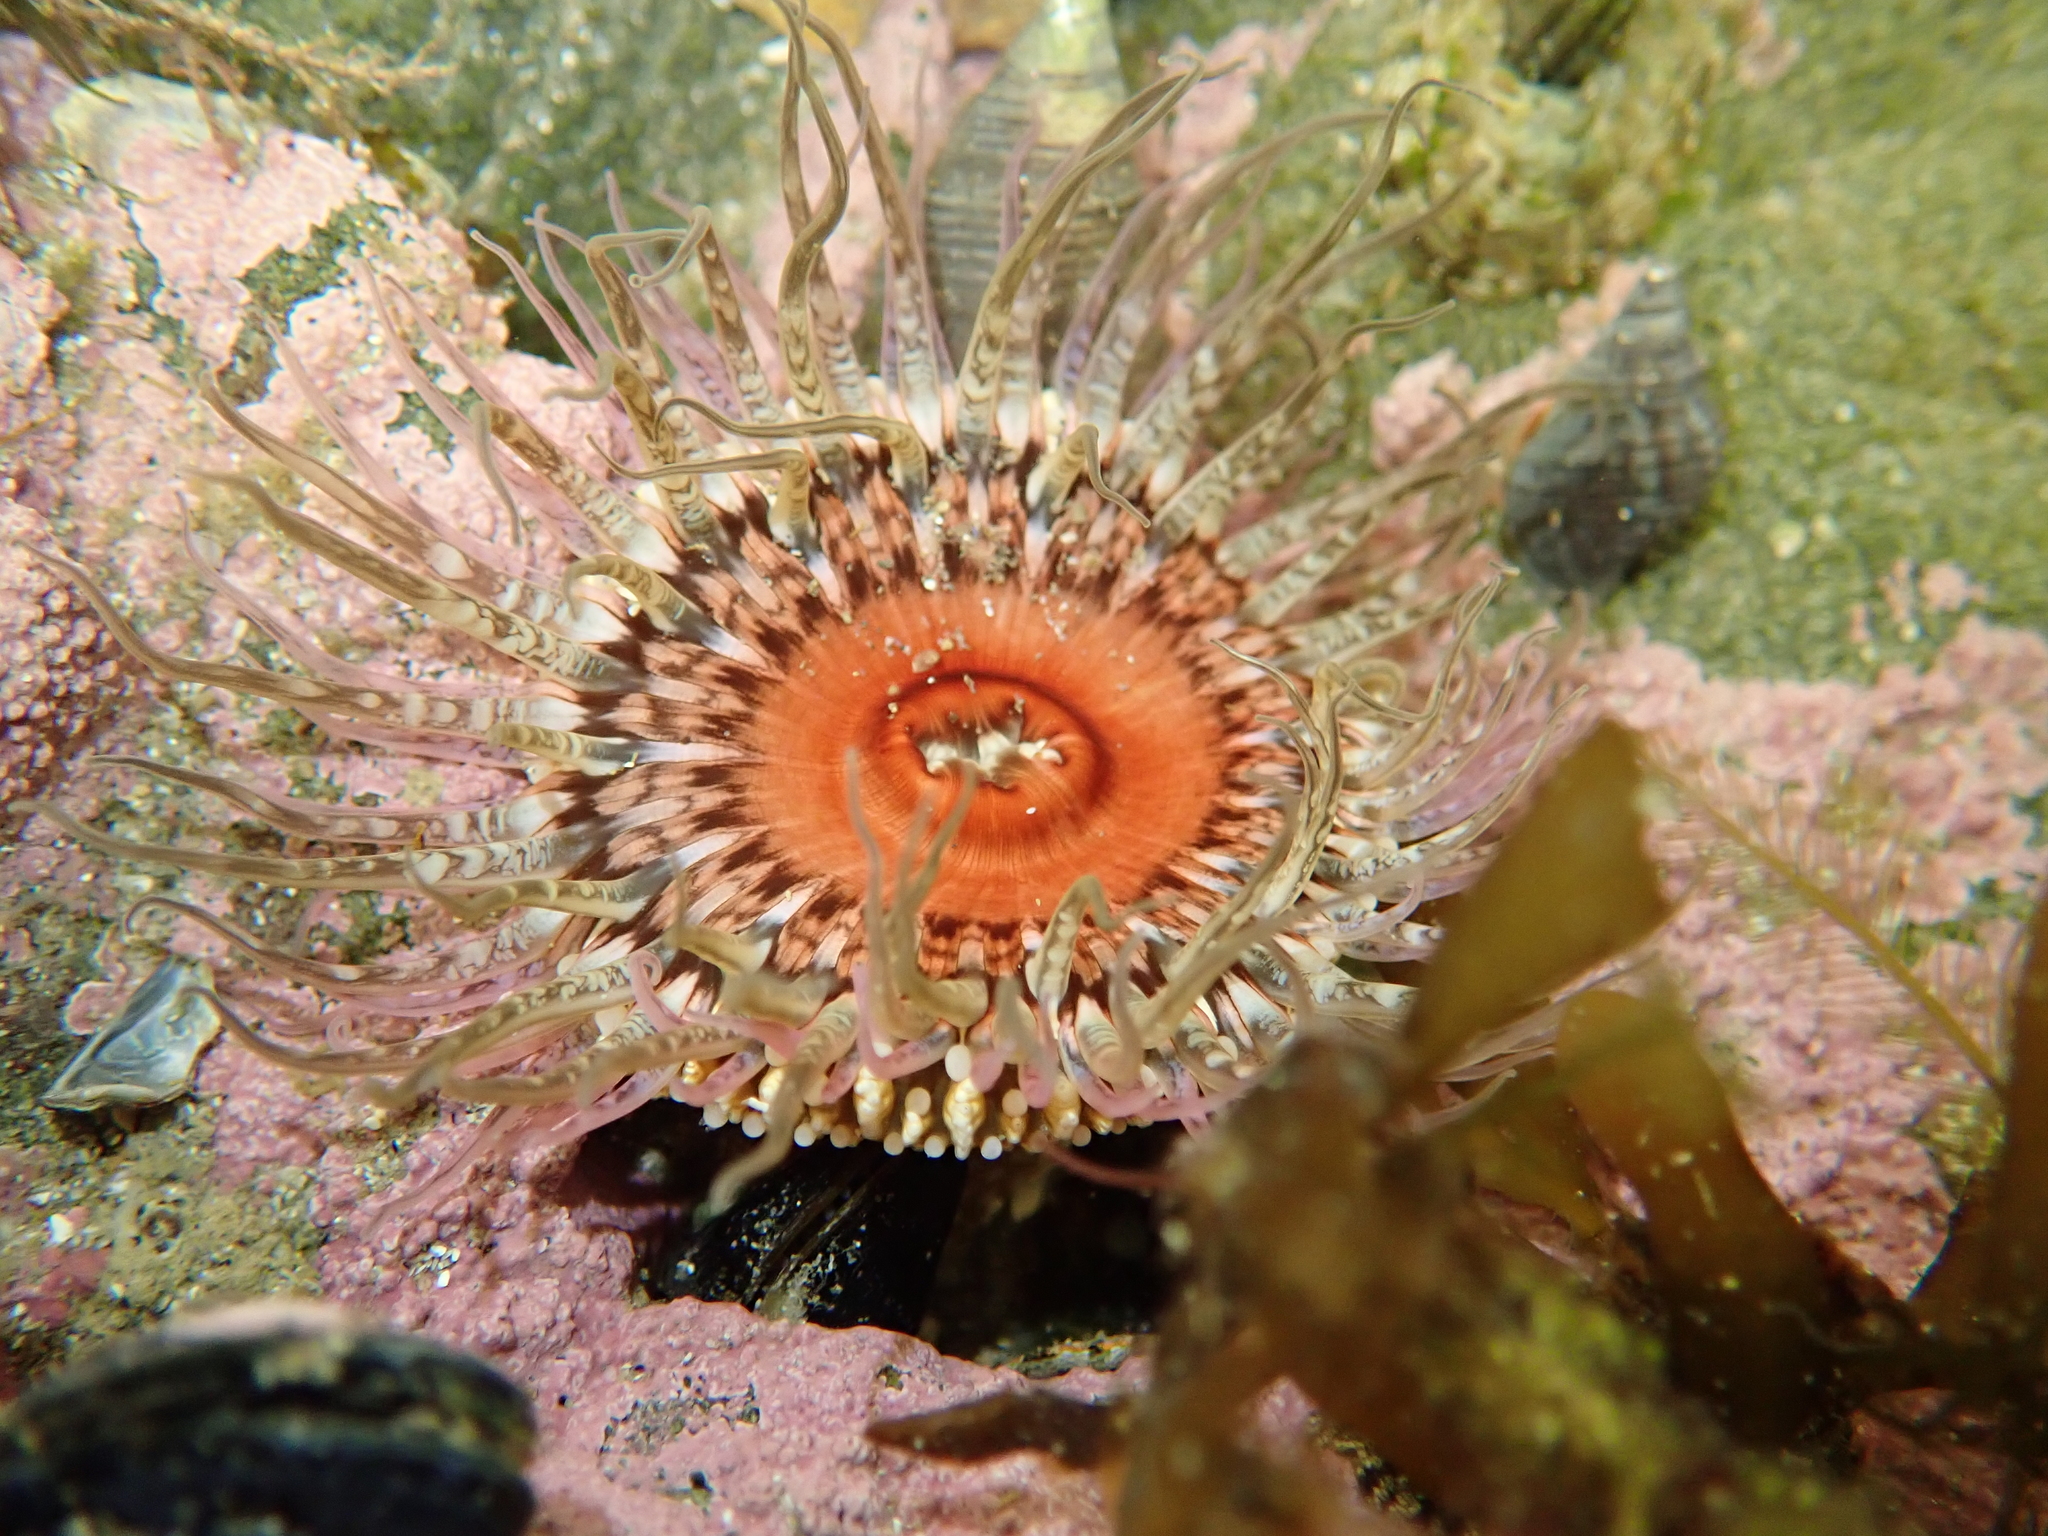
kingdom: Animalia
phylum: Cnidaria
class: Anthozoa
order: Actiniaria
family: Actiniidae
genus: Oulactis
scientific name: Oulactis muscosa
